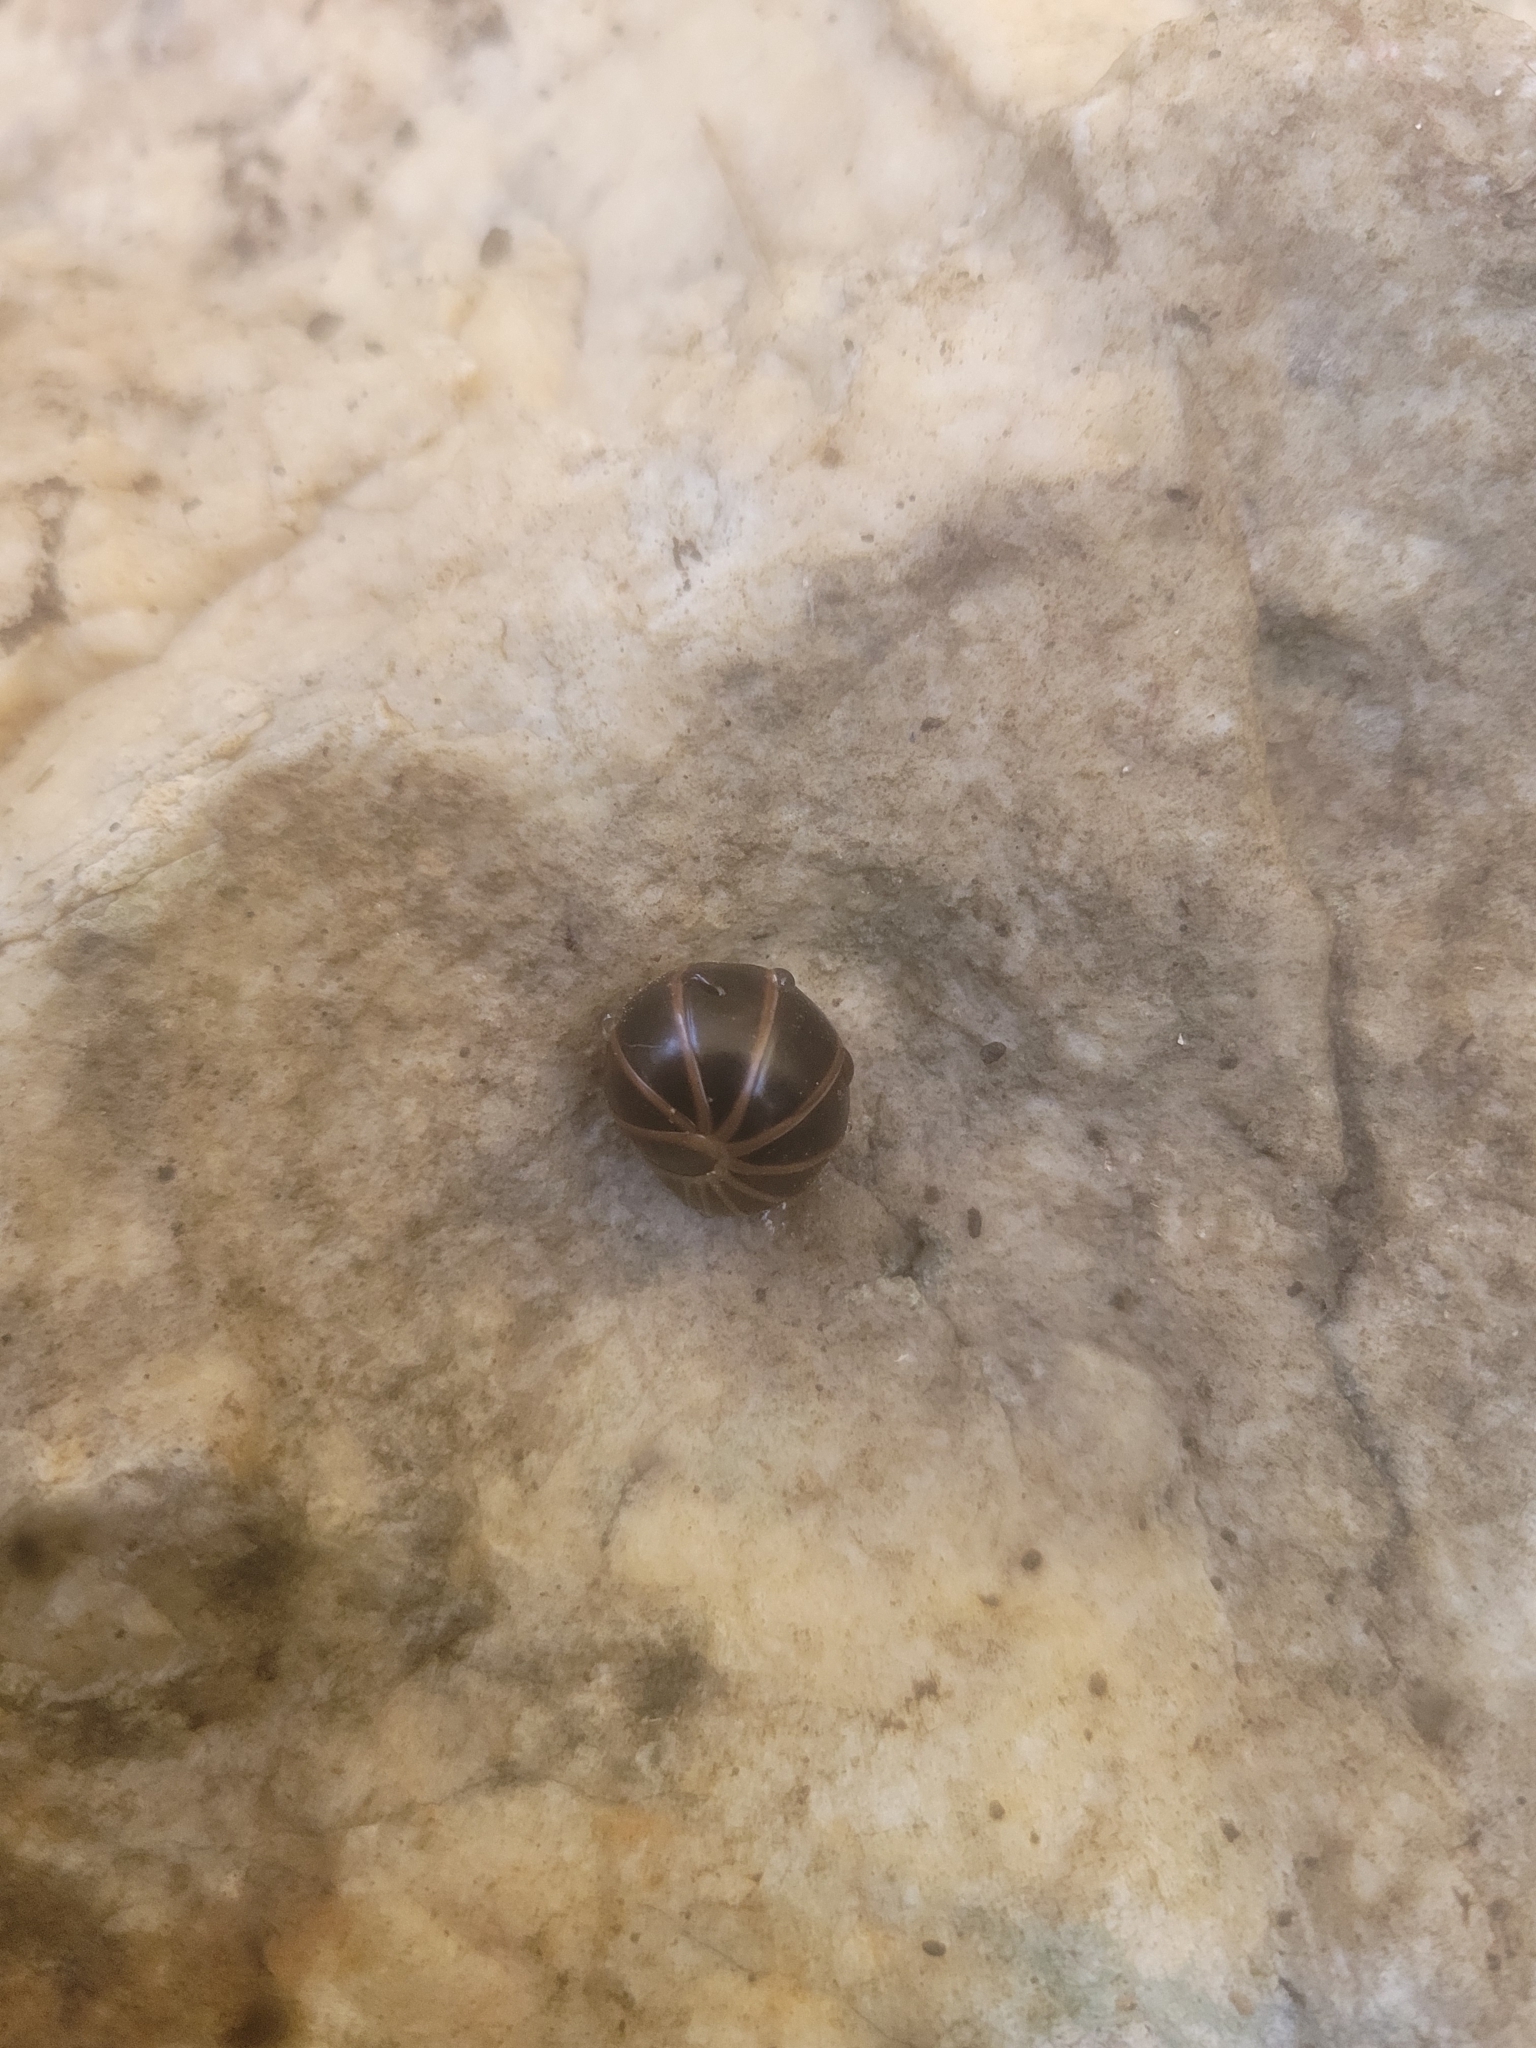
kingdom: Animalia
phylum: Arthropoda
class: Diplopoda
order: Glomerida
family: Glomeridae
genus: Glomeris
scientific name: Glomeris marginata
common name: Bordered pill millipede
